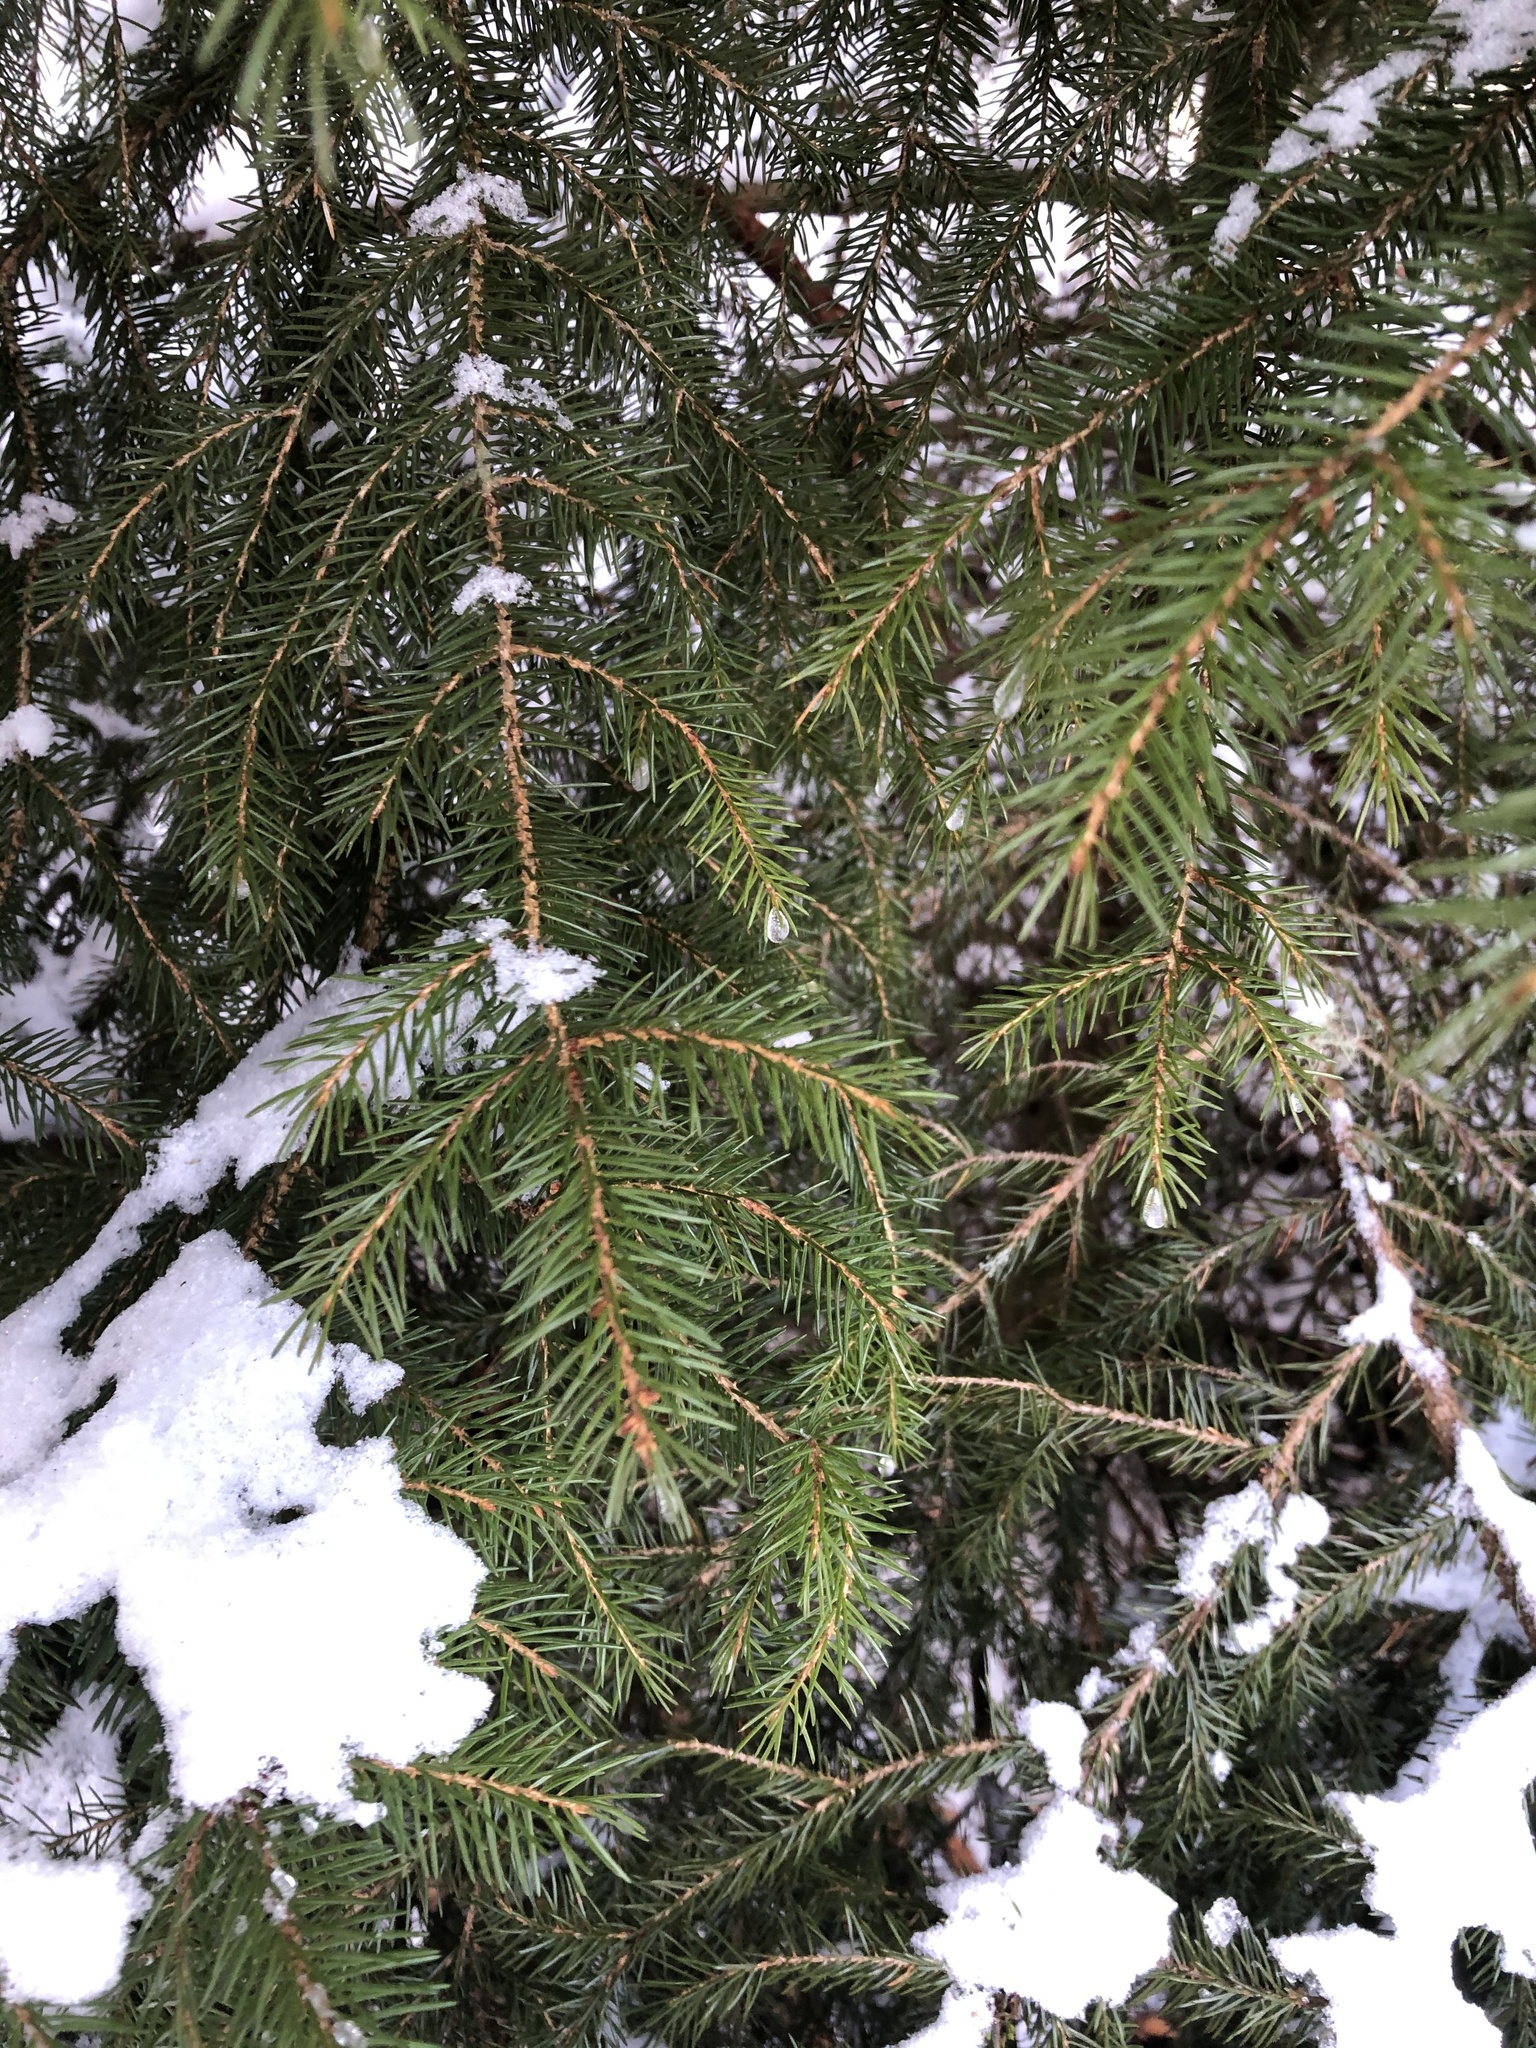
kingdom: Plantae
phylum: Tracheophyta
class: Pinopsida
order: Pinales
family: Pinaceae
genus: Picea
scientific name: Picea rubens
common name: Red spruce
